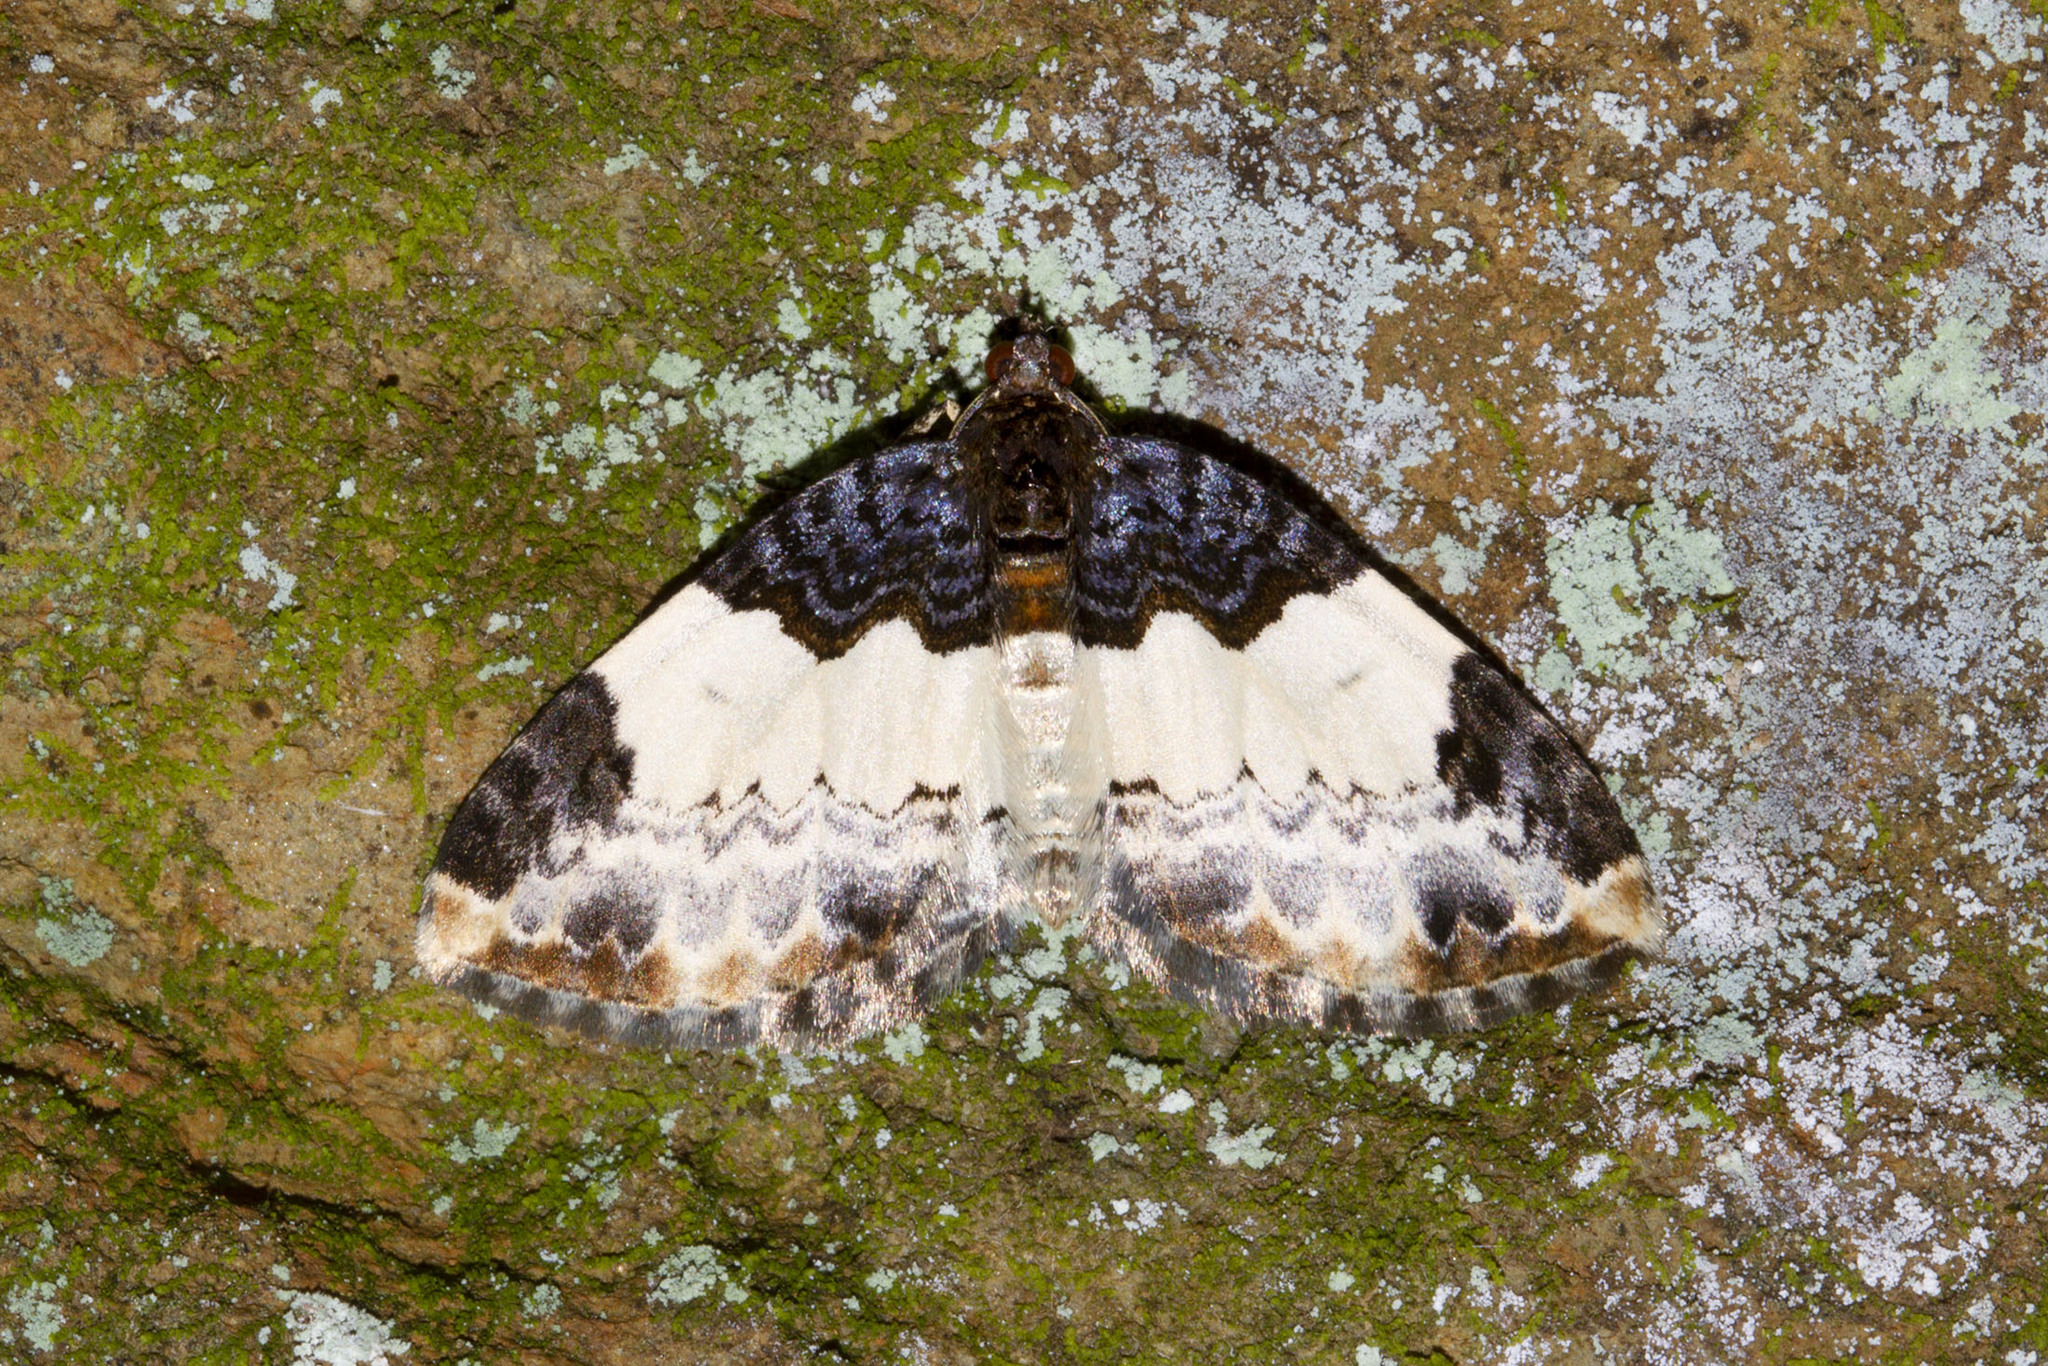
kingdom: Animalia
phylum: Arthropoda
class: Insecta
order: Lepidoptera
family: Geometridae
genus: Mesoleuca
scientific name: Mesoleuca ruficillata
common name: White-ribboned carpet moth
